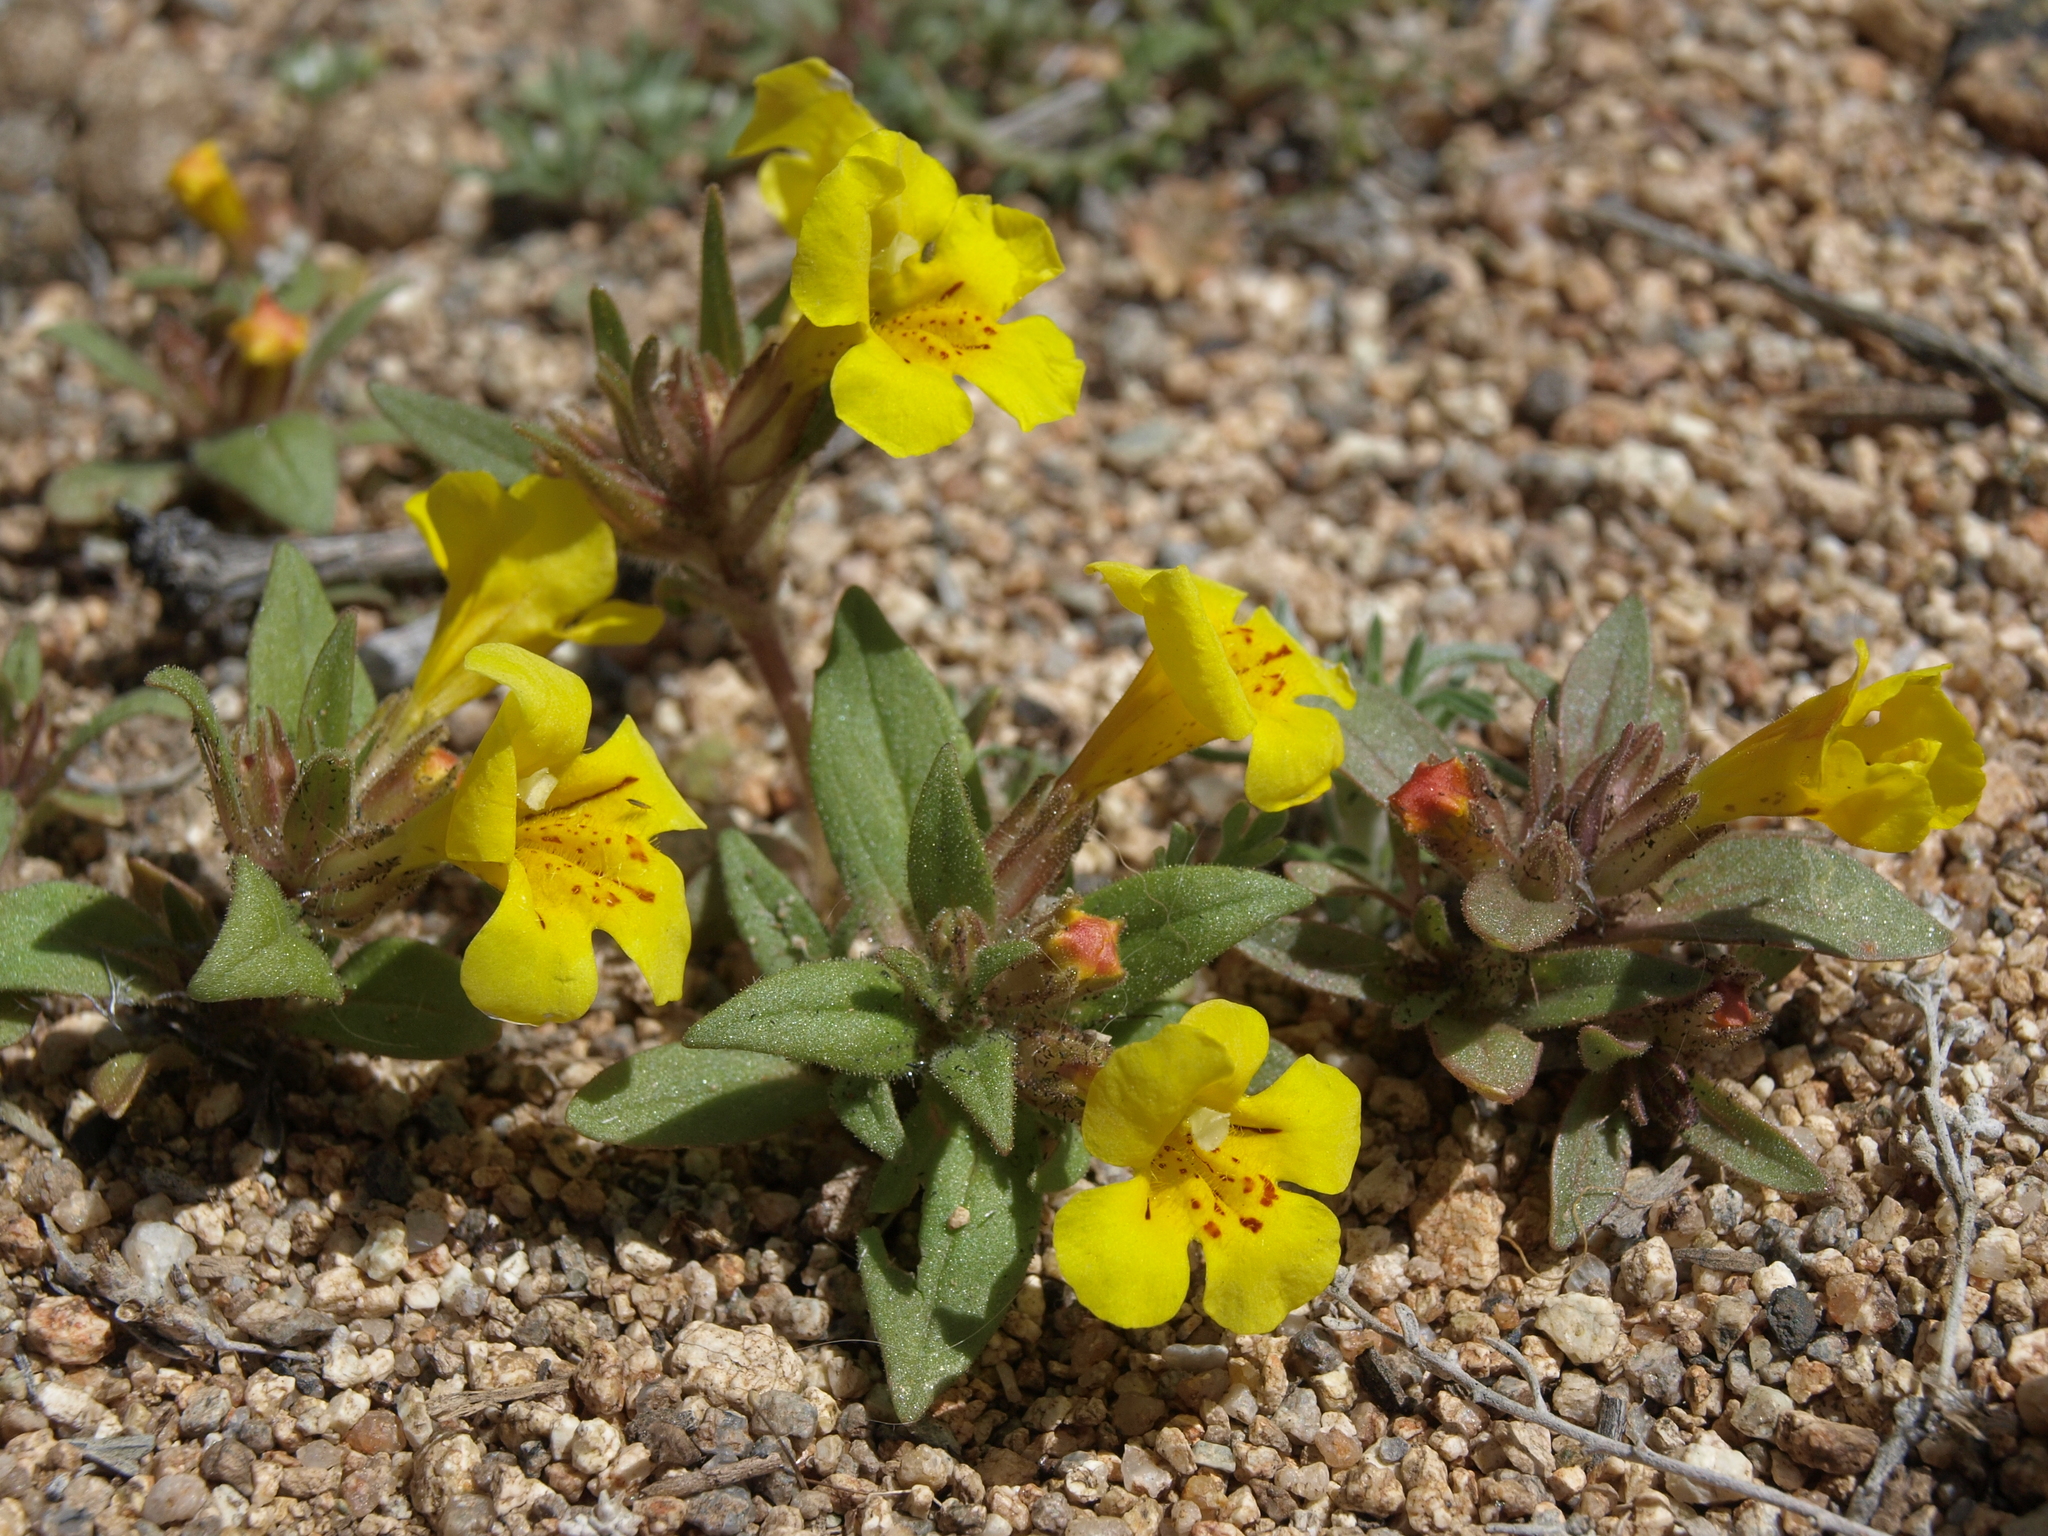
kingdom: Plantae
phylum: Tracheophyta
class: Magnoliopsida
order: Lamiales
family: Phrymaceae
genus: Diplacus
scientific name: Diplacus mephiticus
